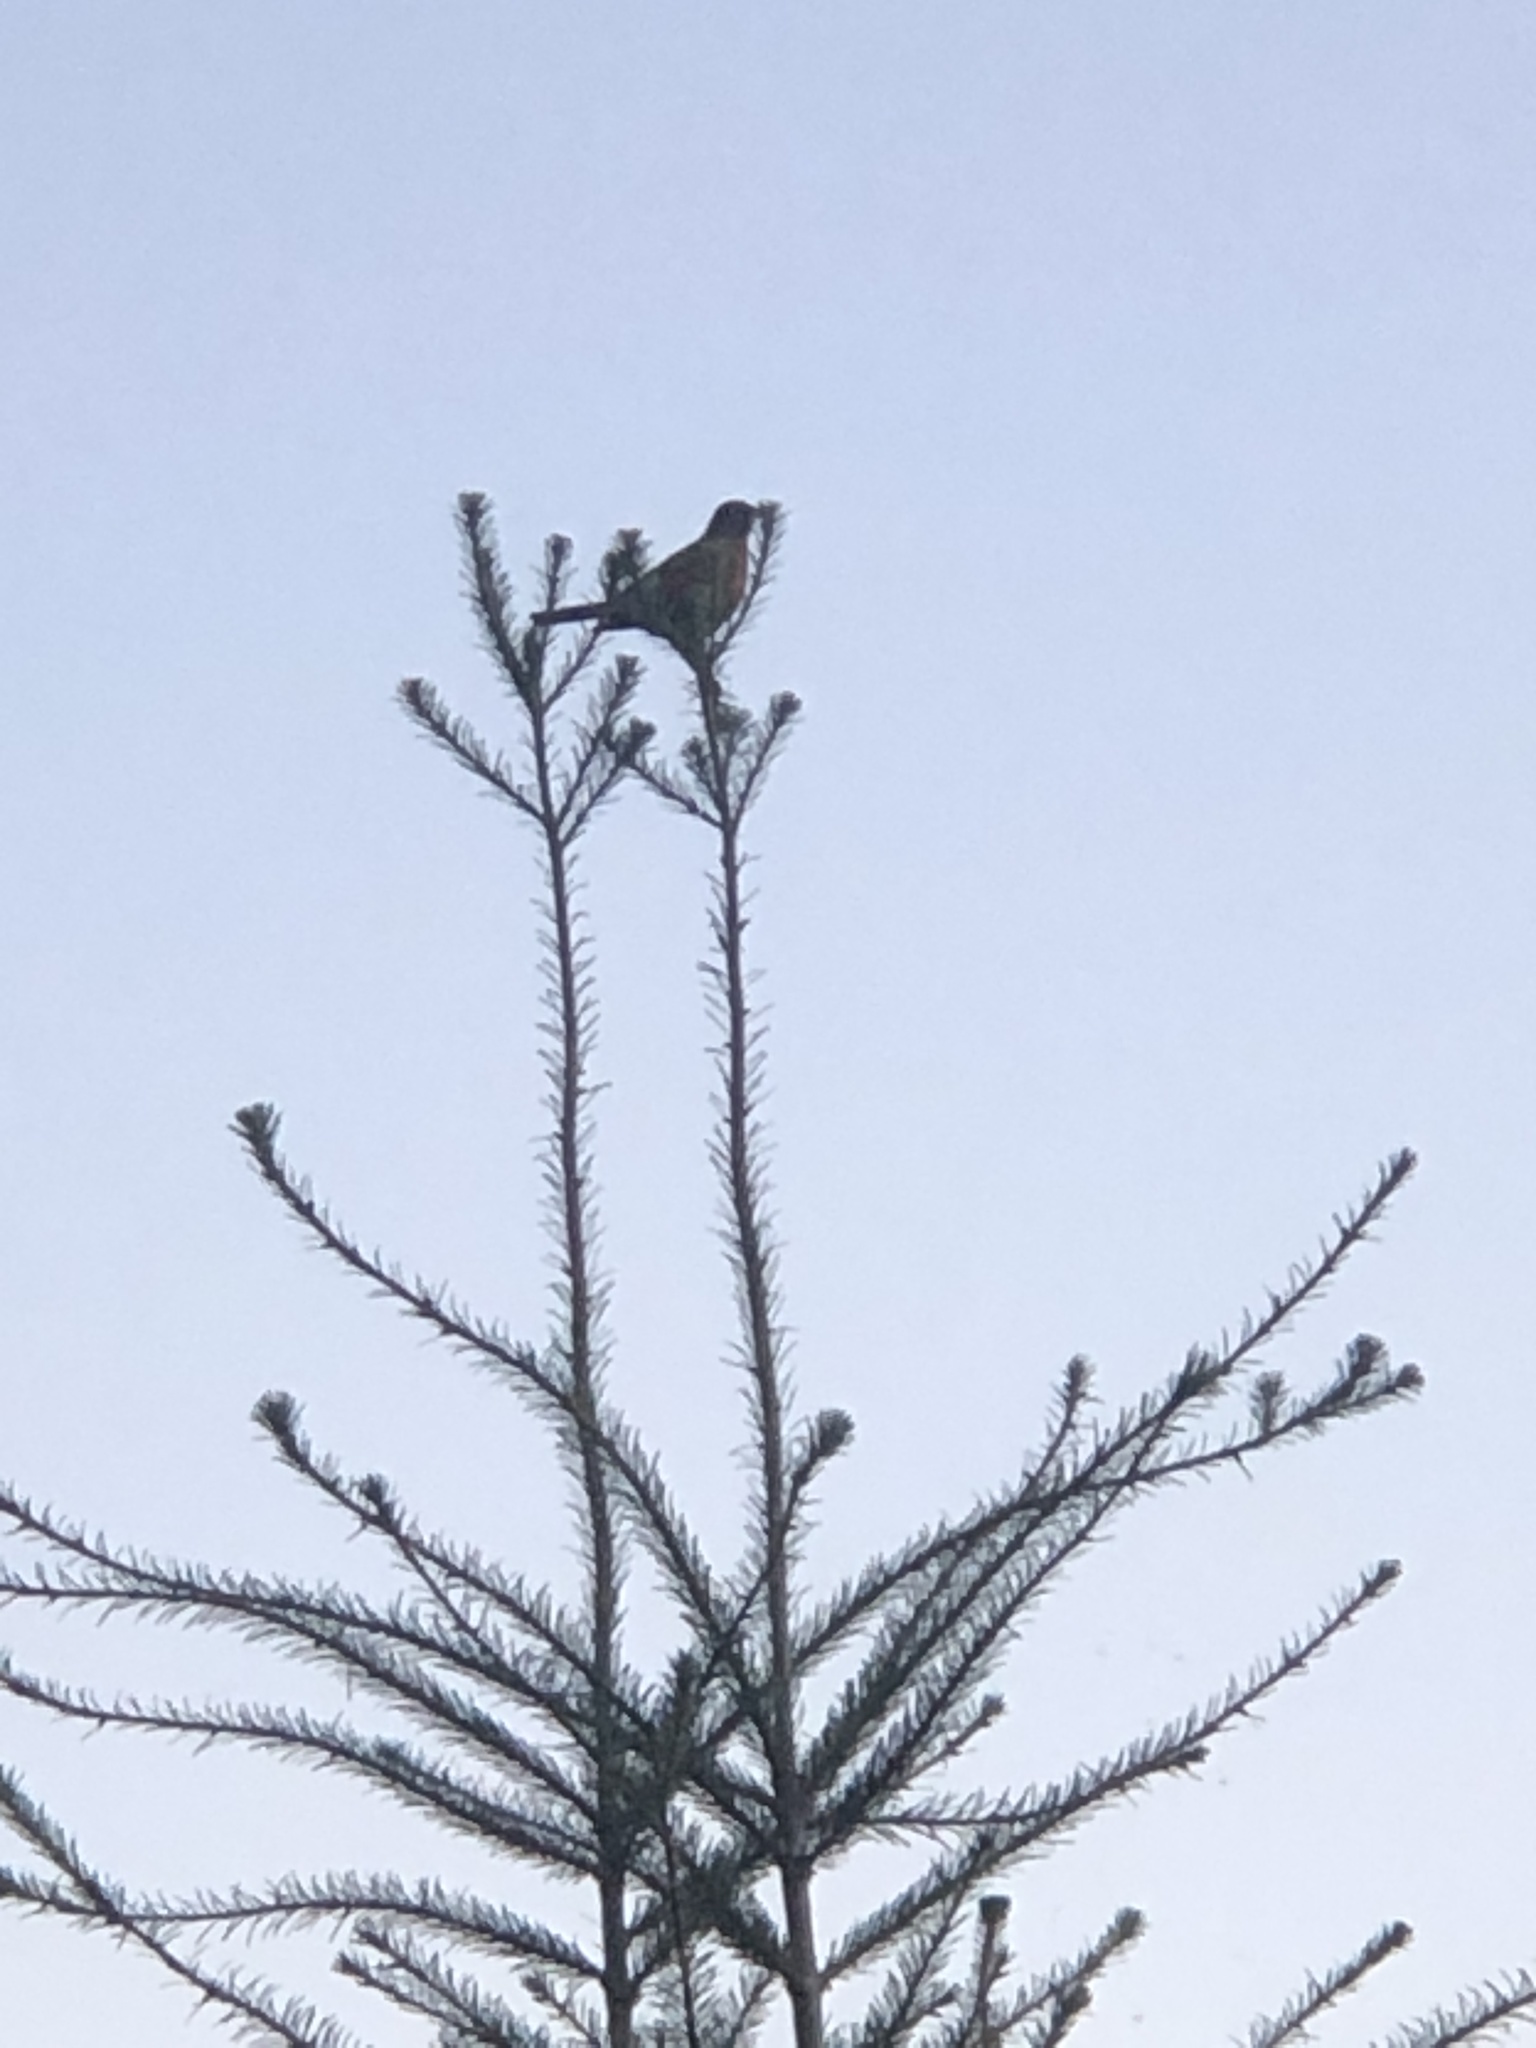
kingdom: Animalia
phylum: Chordata
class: Aves
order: Passeriformes
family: Turdidae
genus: Turdus
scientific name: Turdus migratorius
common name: American robin
